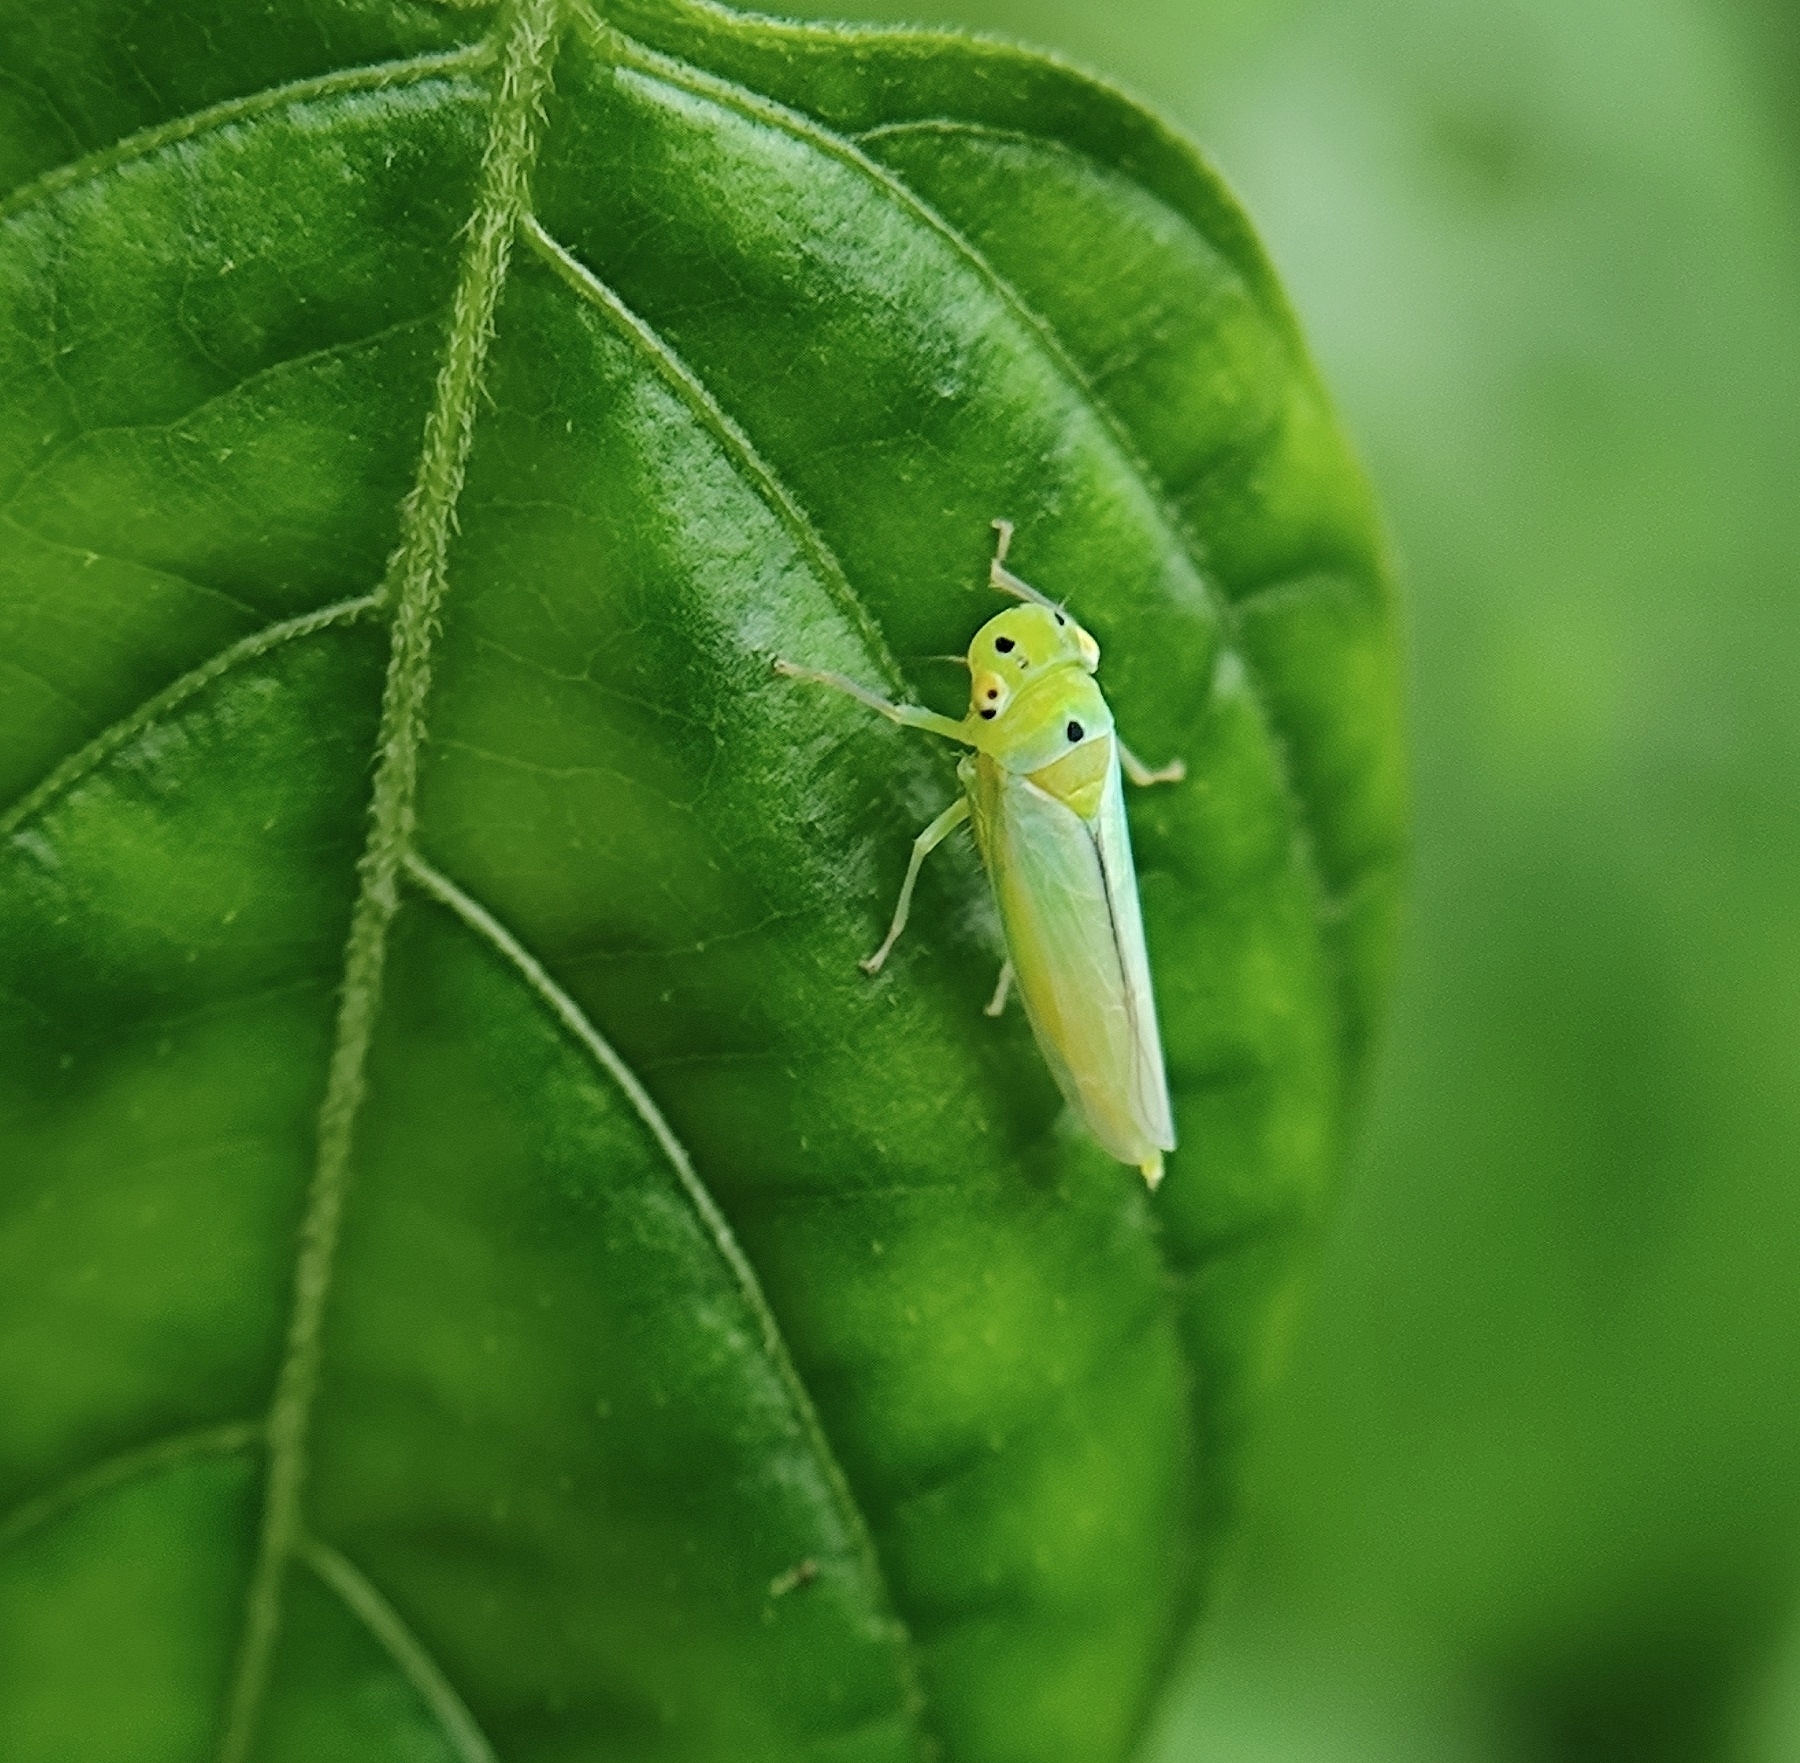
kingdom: Animalia
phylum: Arthropoda
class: Insecta
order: Hemiptera
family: Cicadellidae
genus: Kolla
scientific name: Kolla ceylonica
